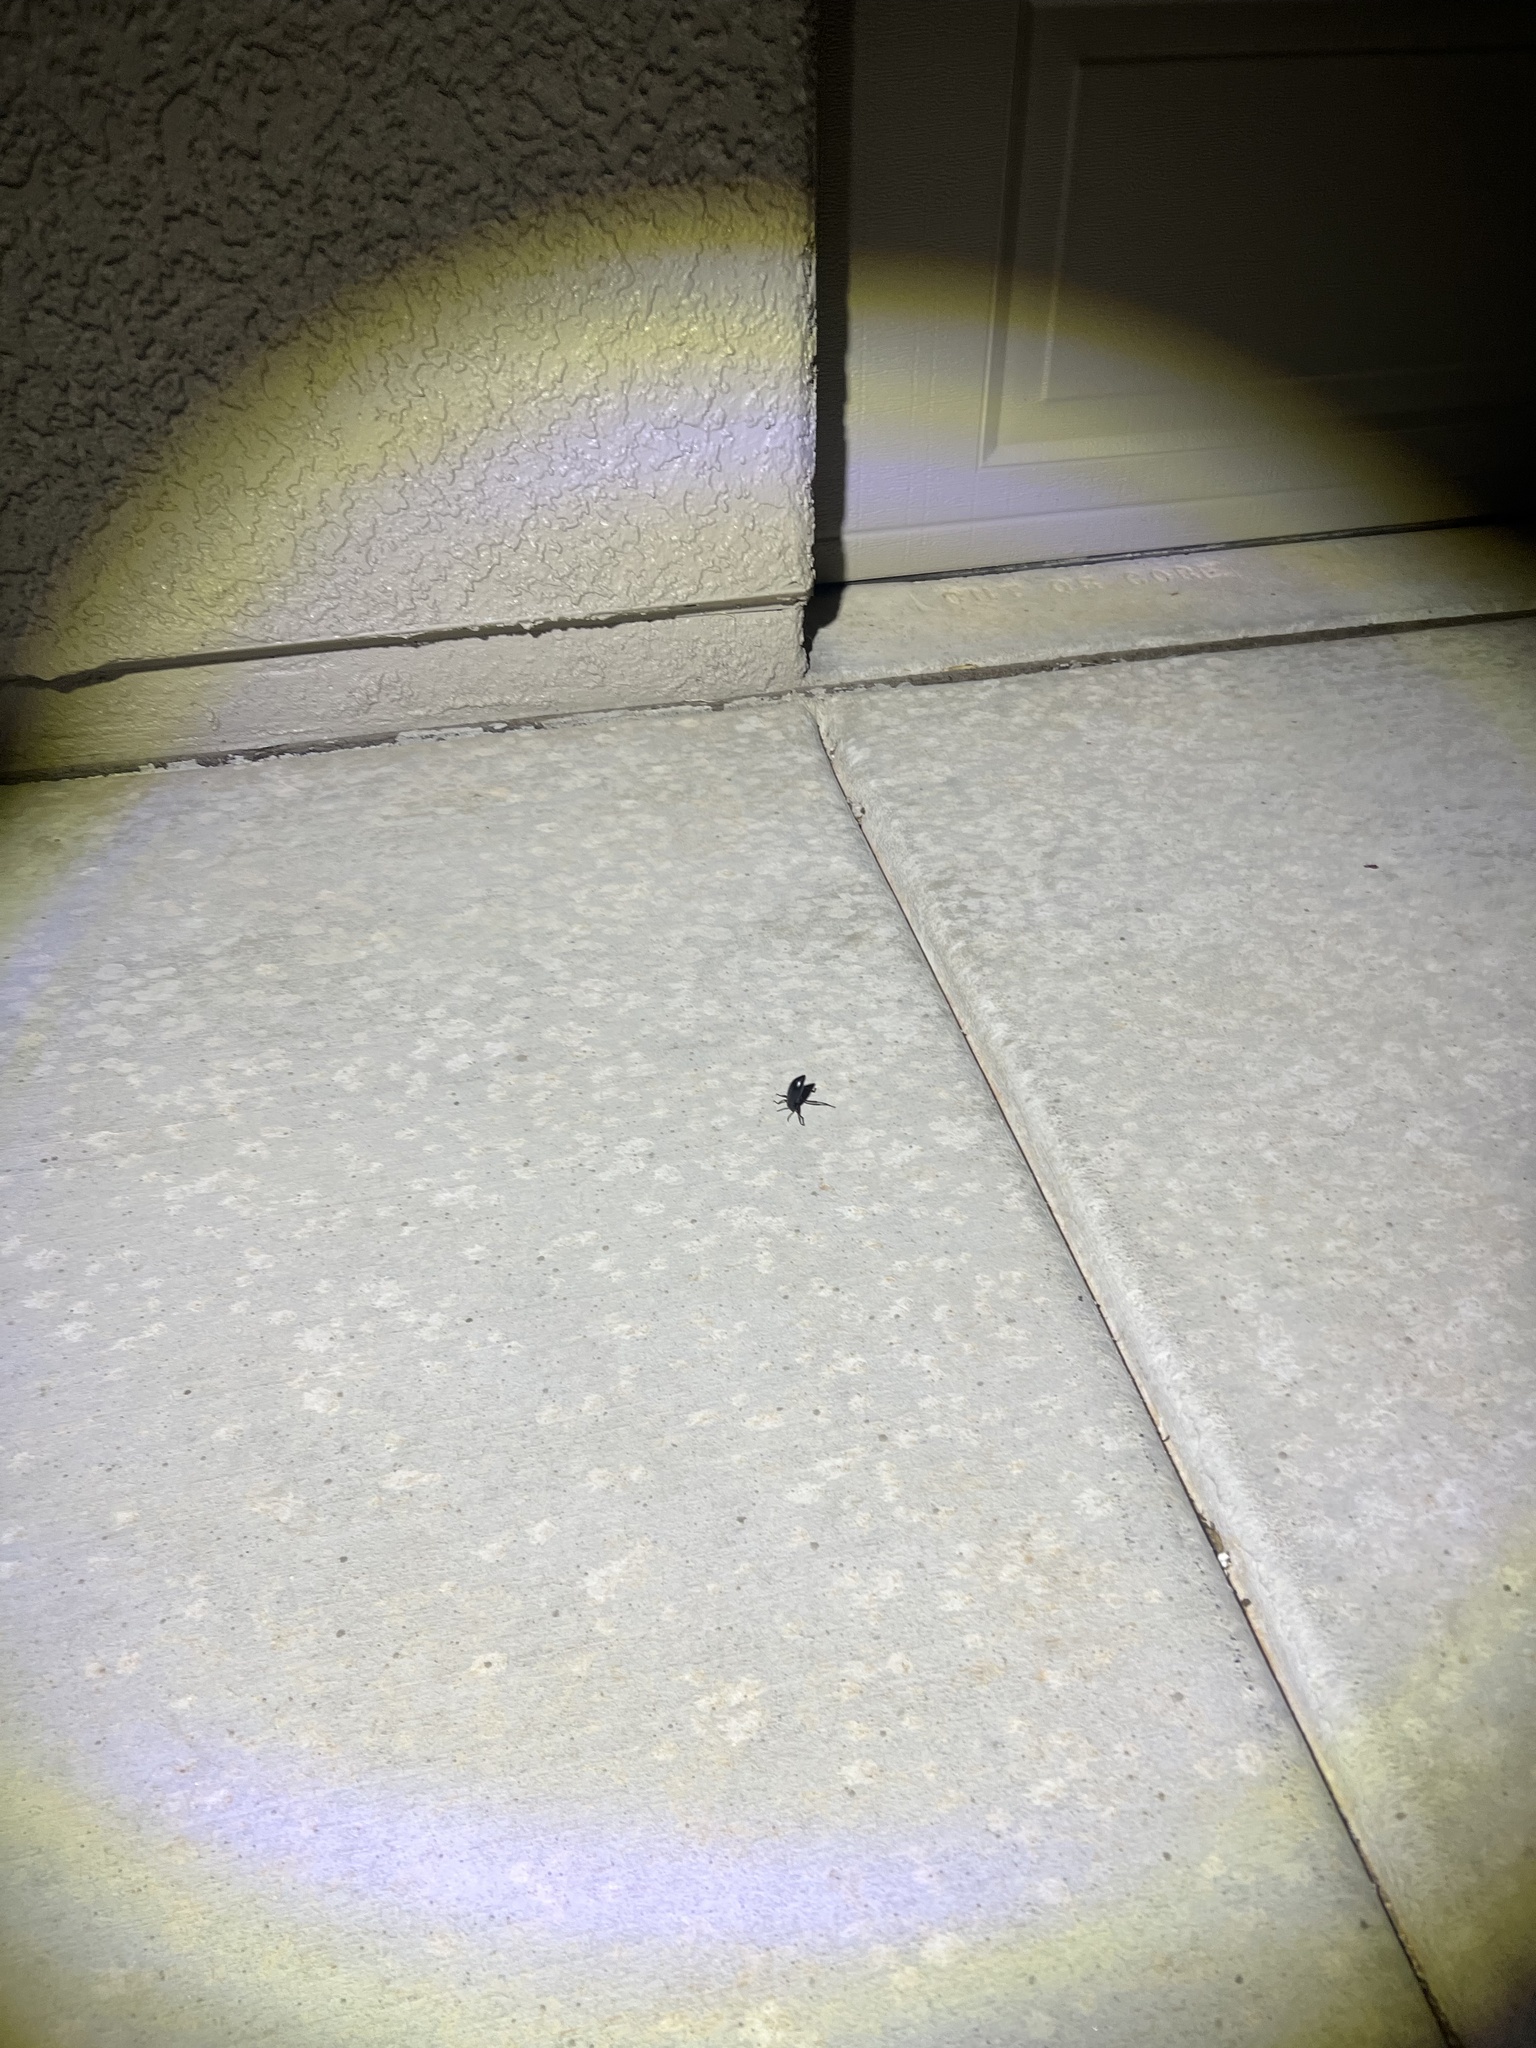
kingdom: Animalia
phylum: Arthropoda
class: Insecta
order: Coleoptera
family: Tenebrionidae
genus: Eleodes
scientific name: Eleodes longicollis
